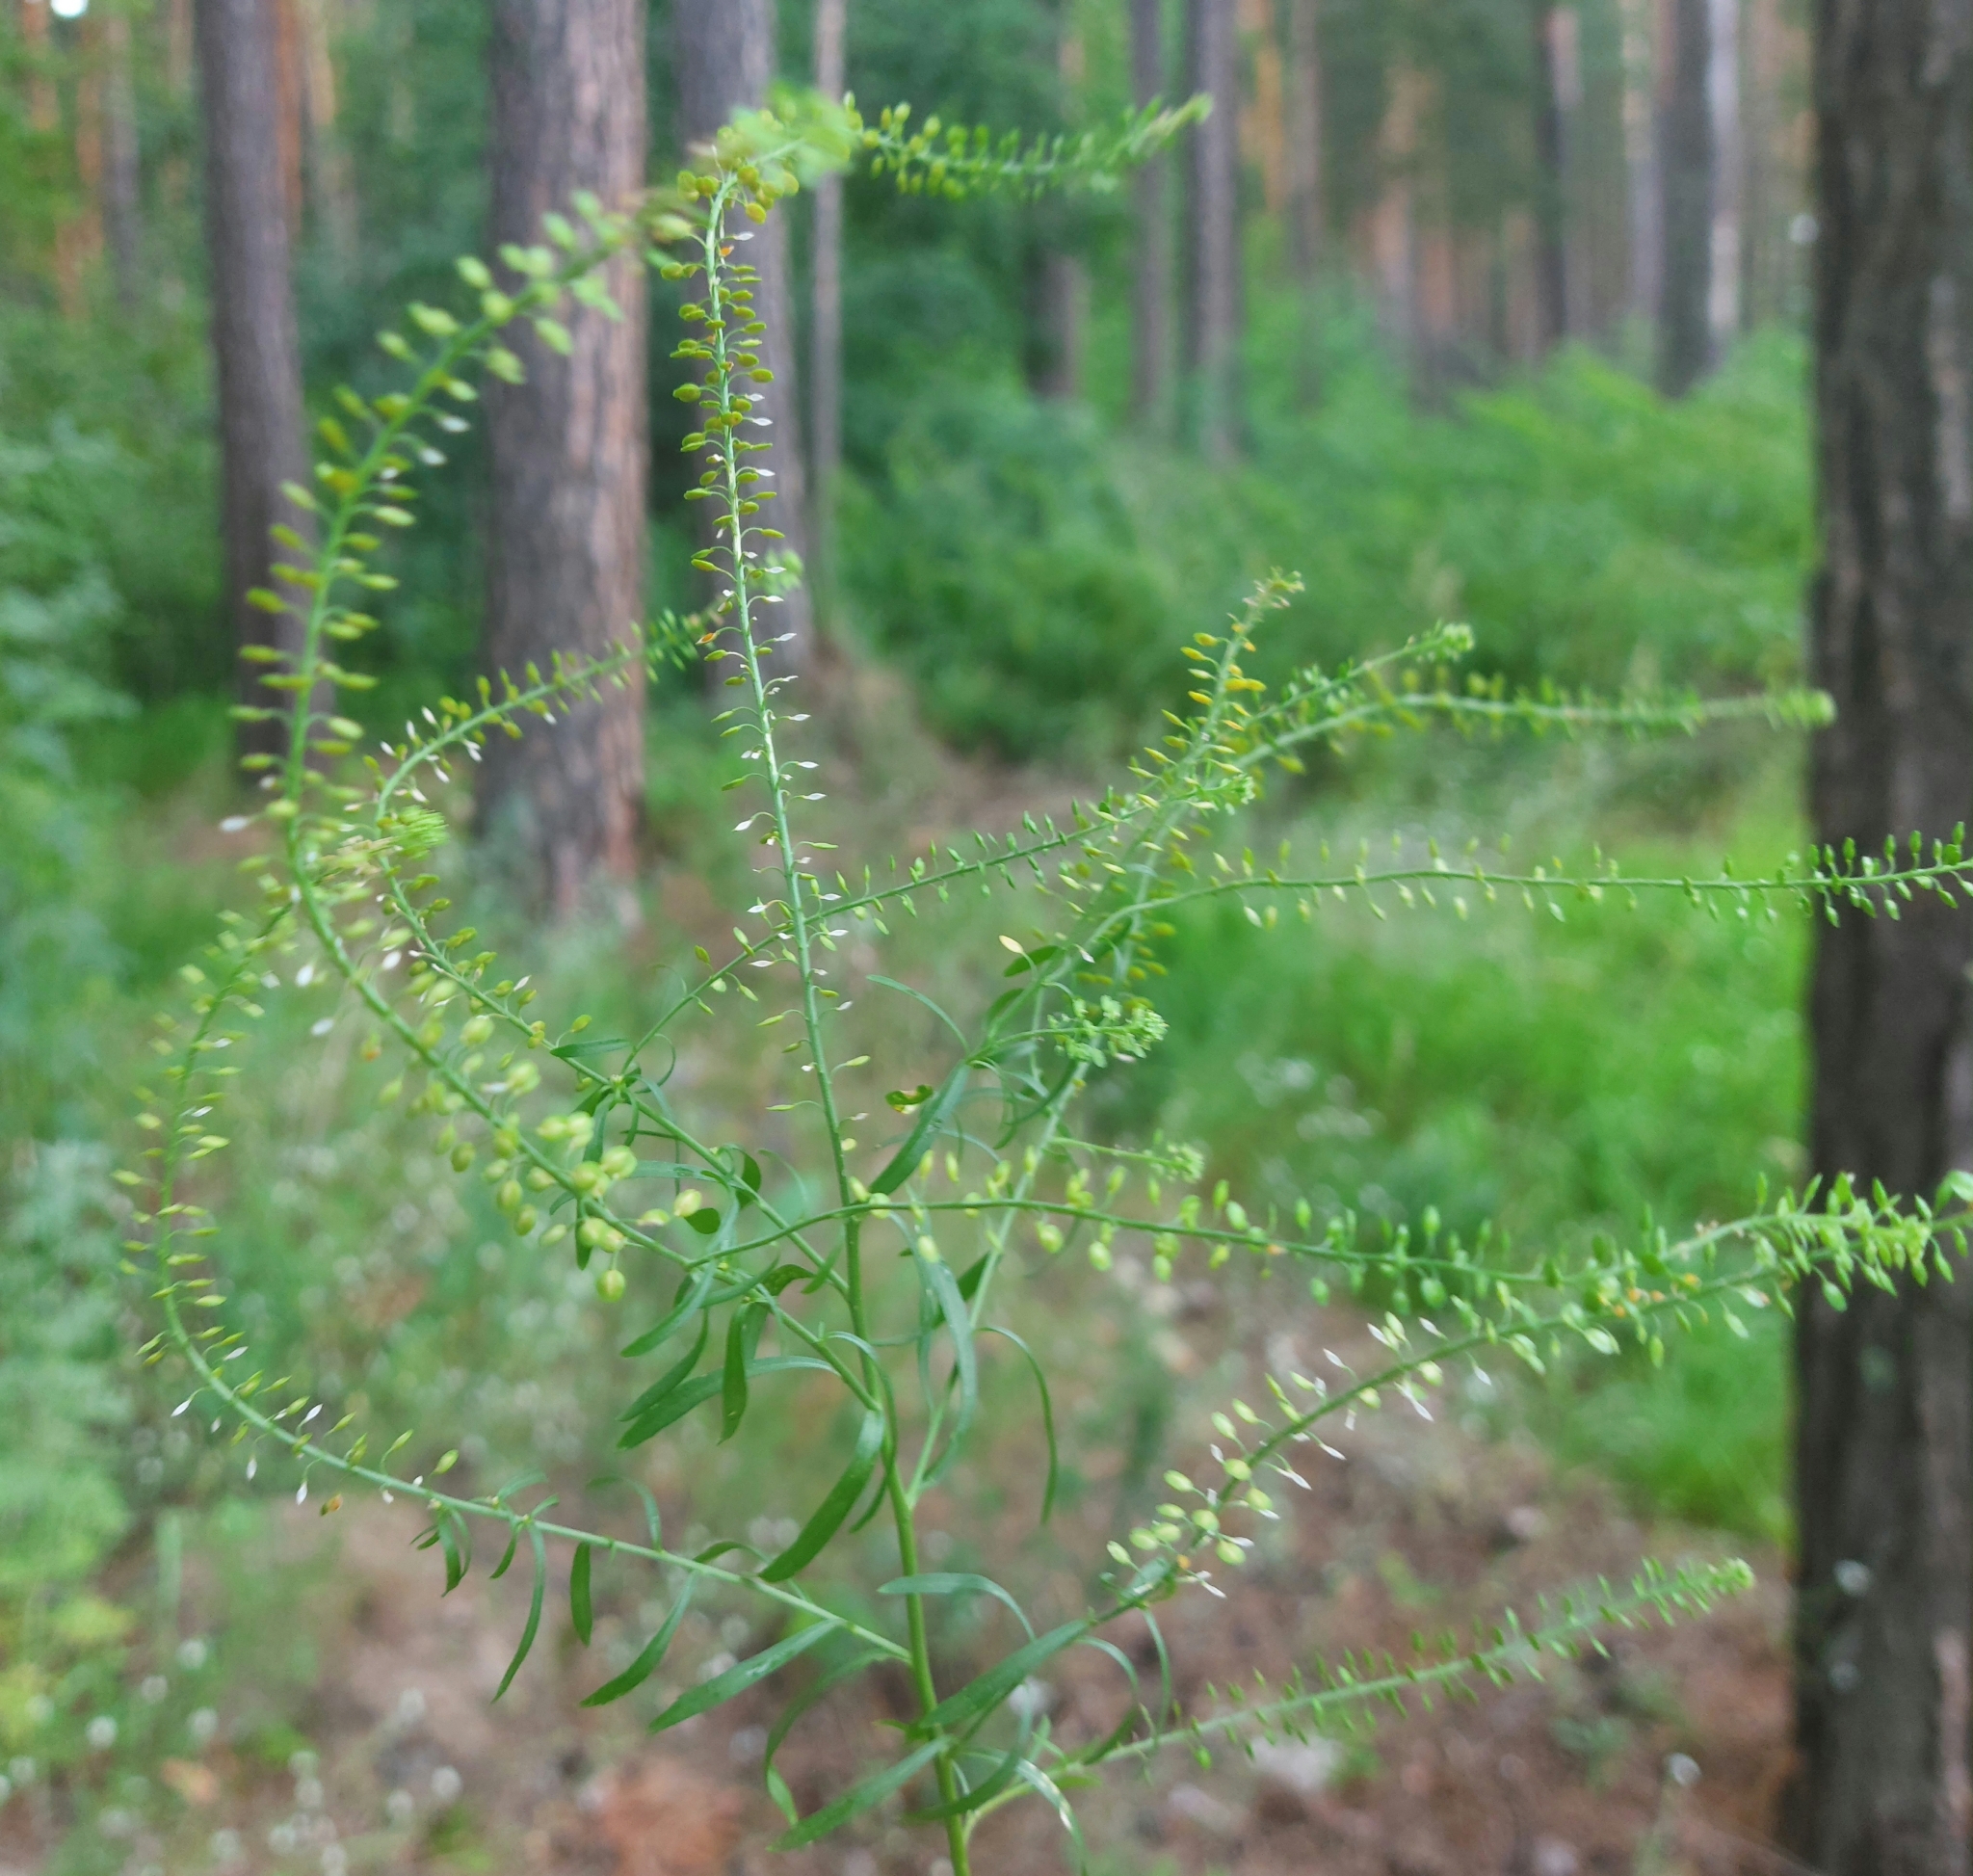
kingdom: Plantae
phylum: Tracheophyta
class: Magnoliopsida
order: Brassicales
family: Brassicaceae
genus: Lepidium
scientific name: Lepidium densiflorum
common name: Miner's pepperwort
